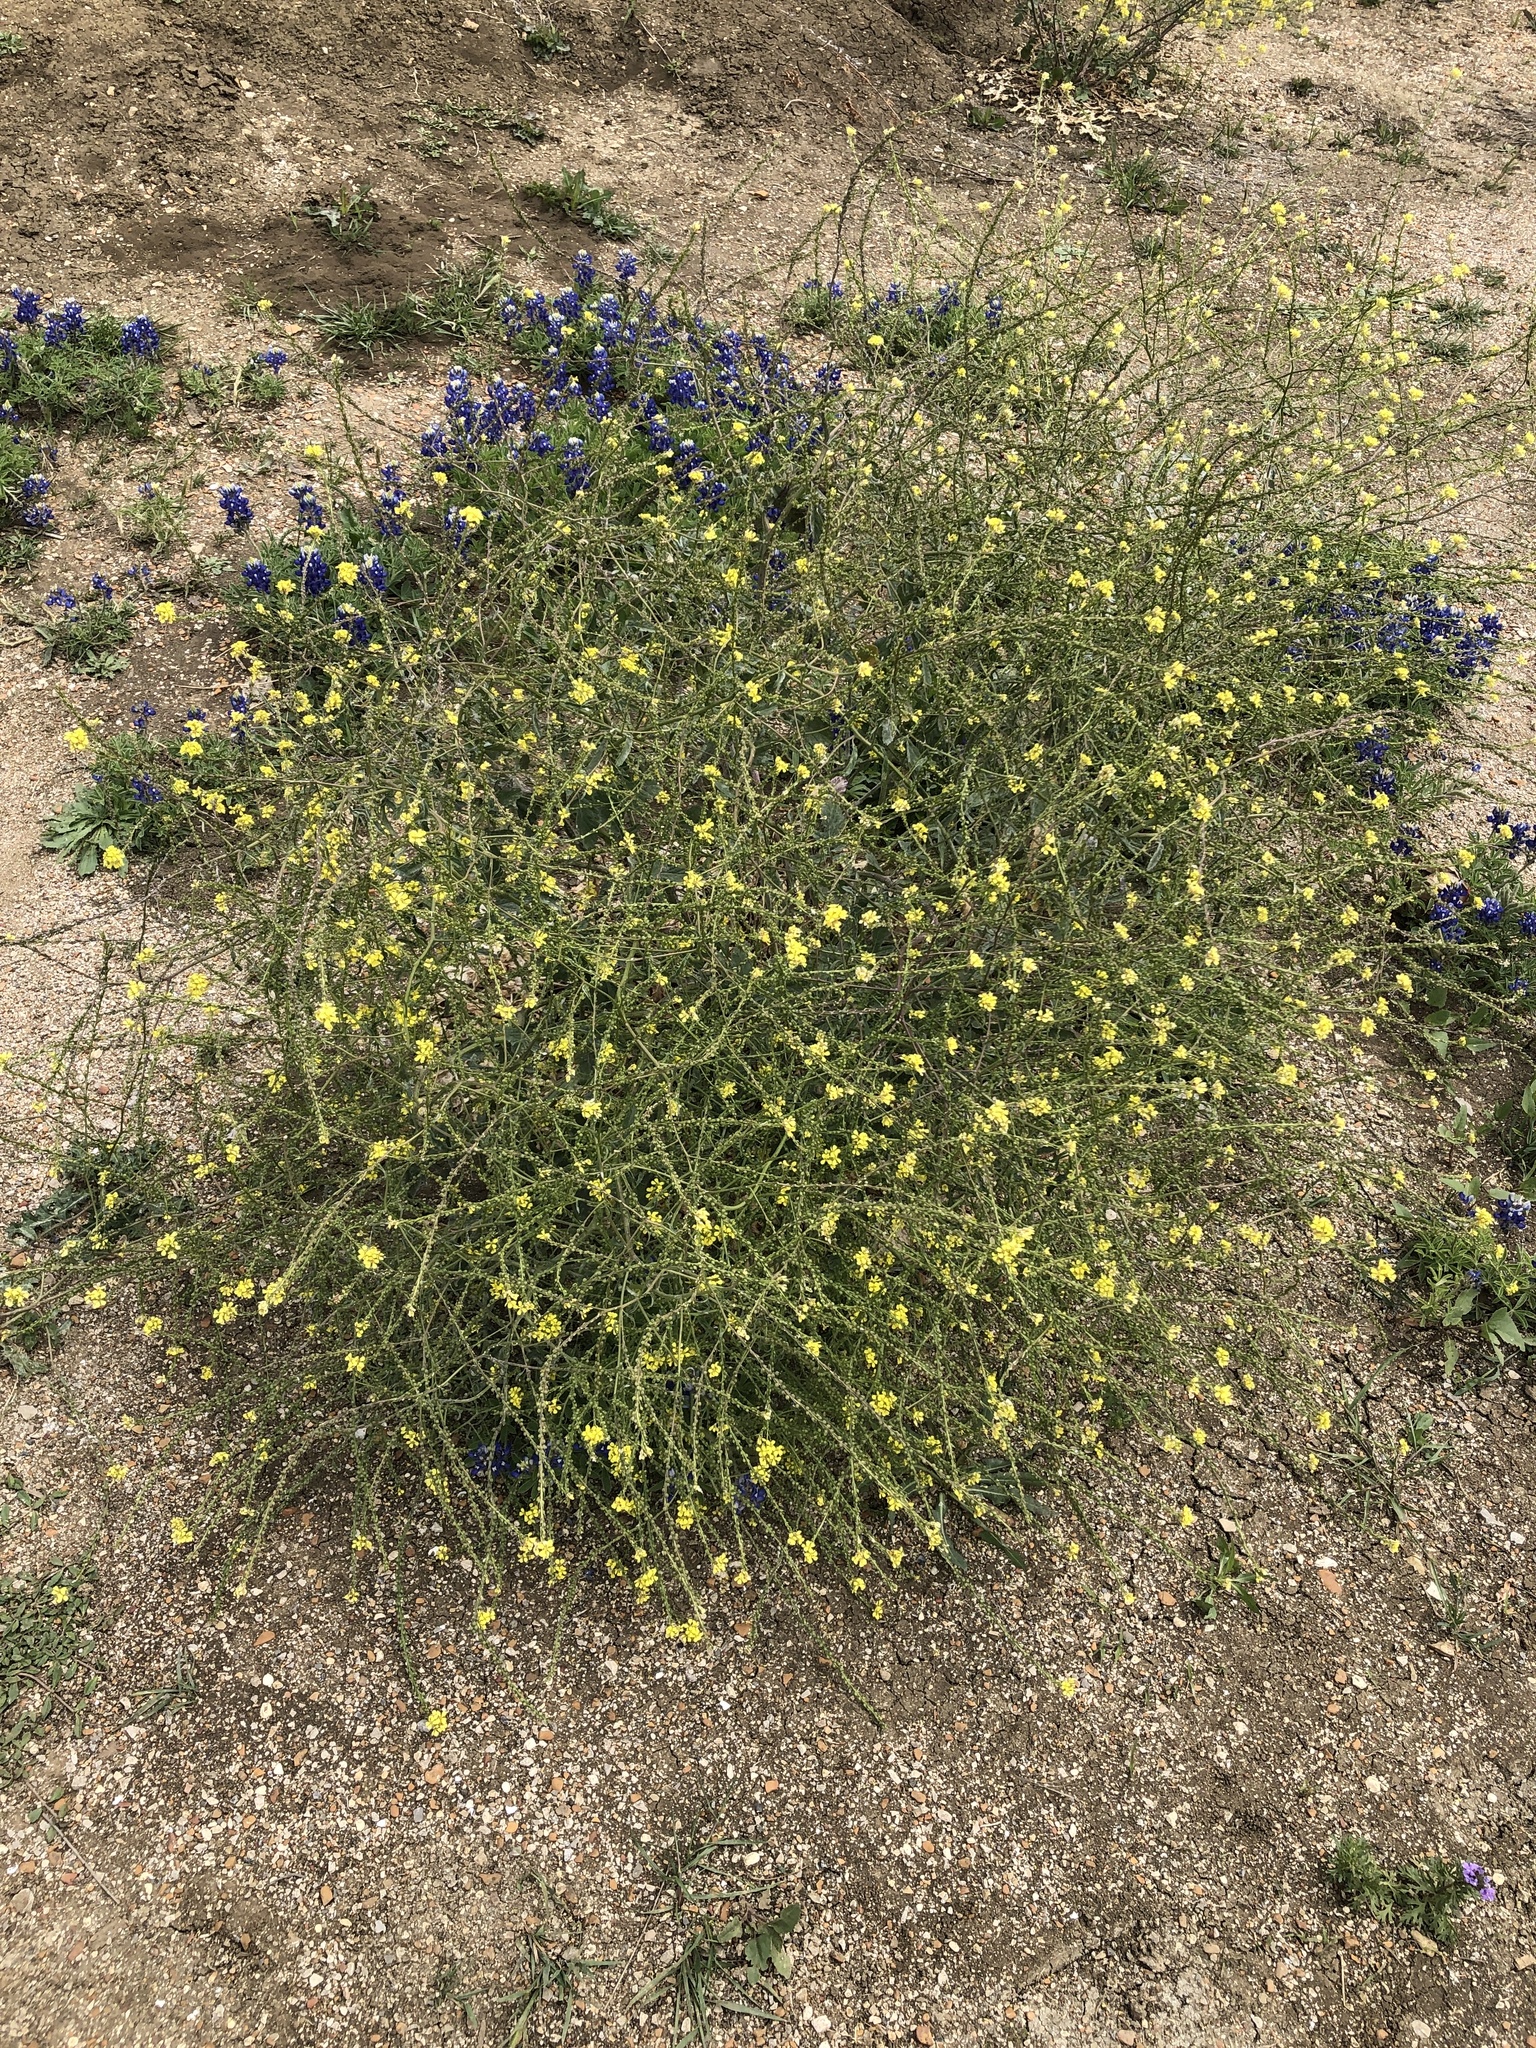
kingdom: Plantae
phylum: Tracheophyta
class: Magnoliopsida
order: Brassicales
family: Brassicaceae
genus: Rapistrum
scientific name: Rapistrum rugosum
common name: Annual bastardcabbage
